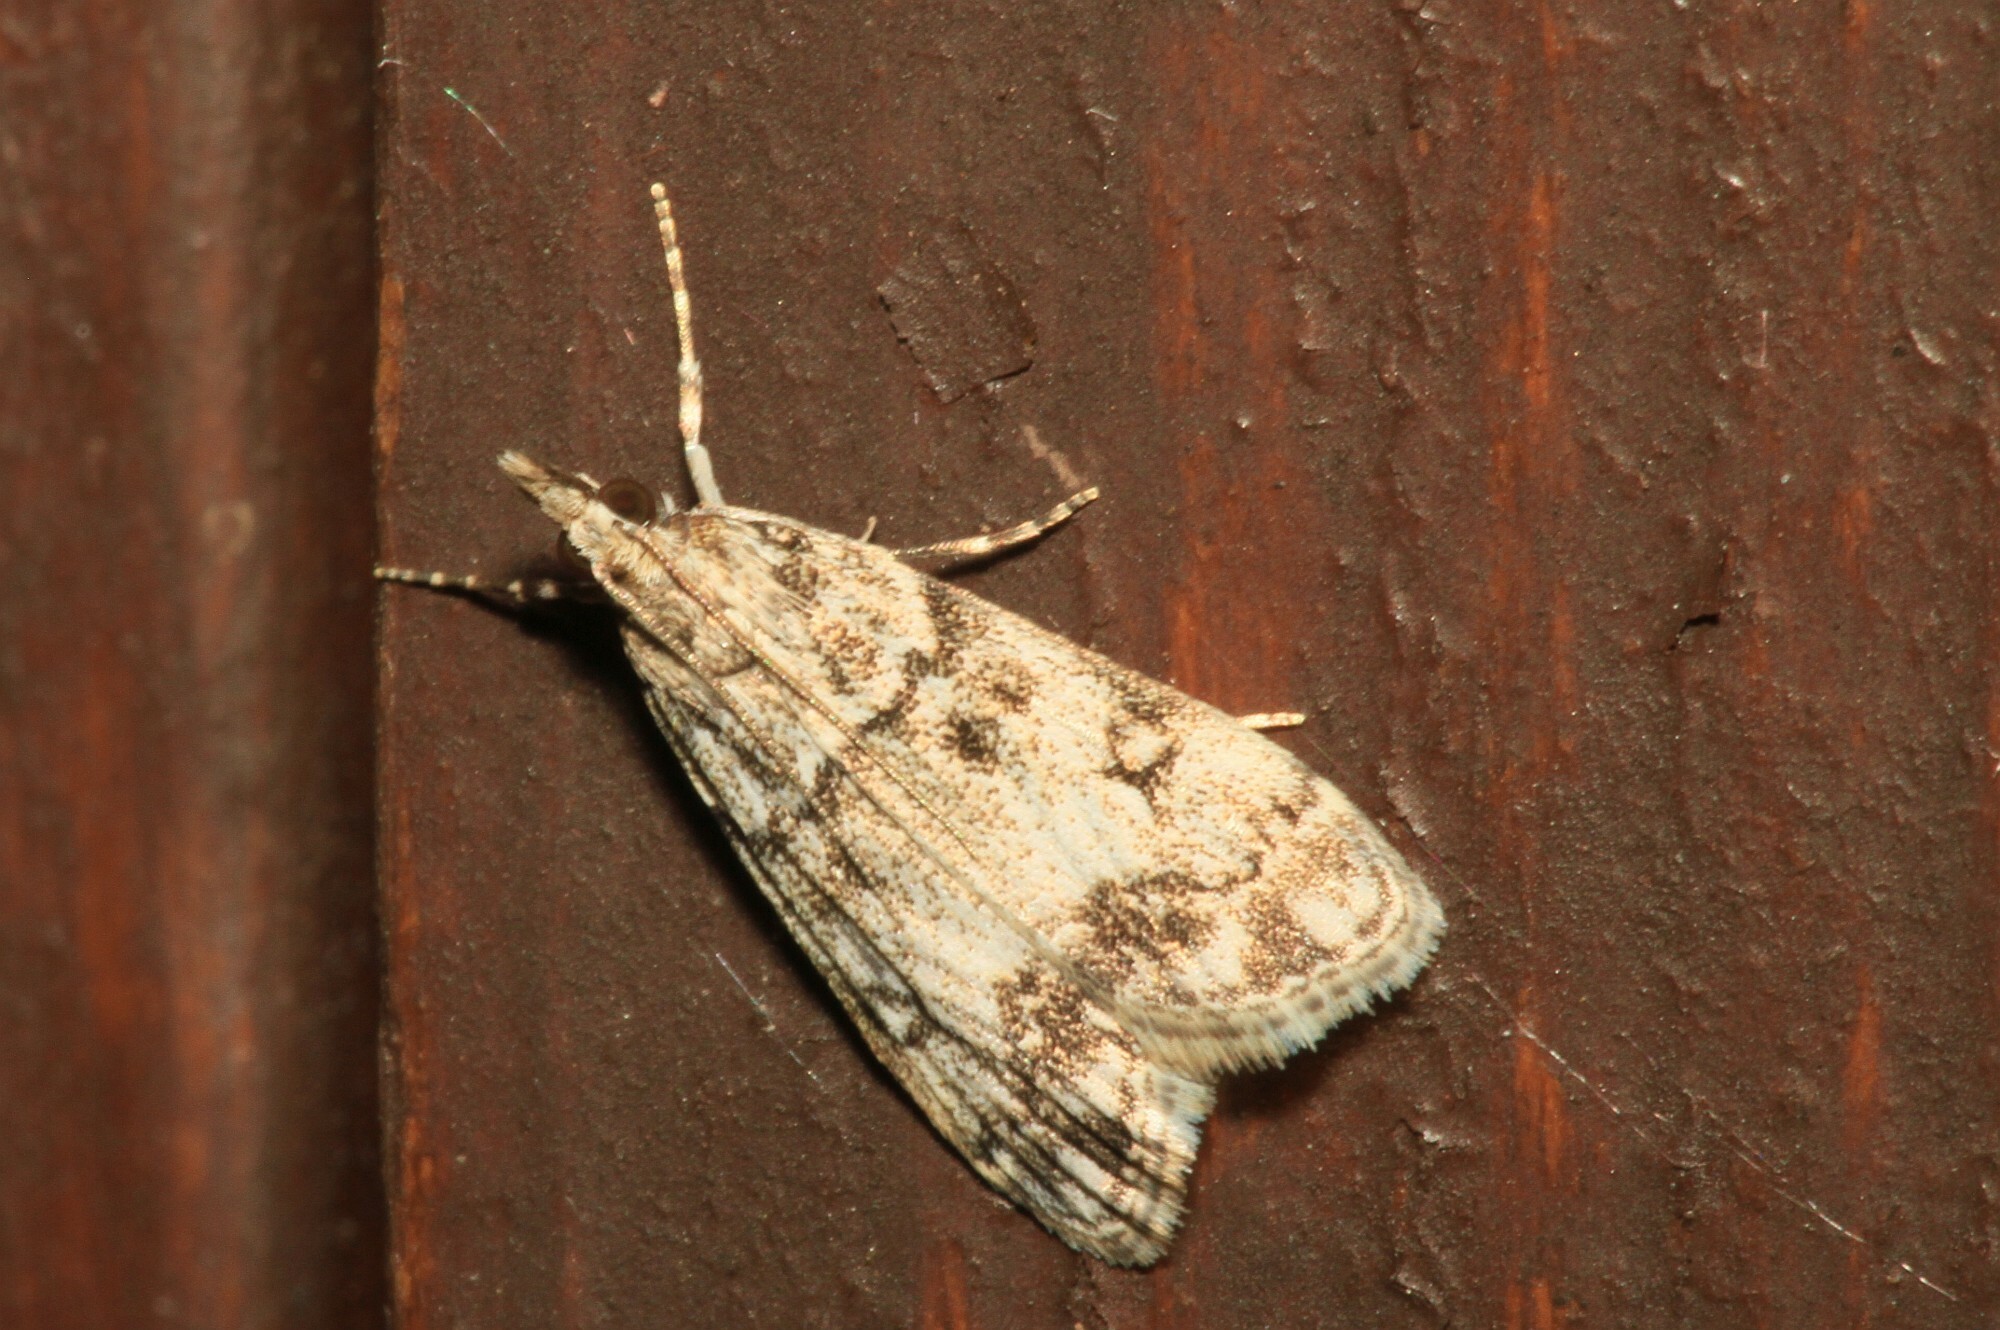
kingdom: Animalia
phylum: Arthropoda
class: Insecta
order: Lepidoptera
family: Crambidae
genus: Eudonia
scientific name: Eudonia lacustrata
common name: Little grey
